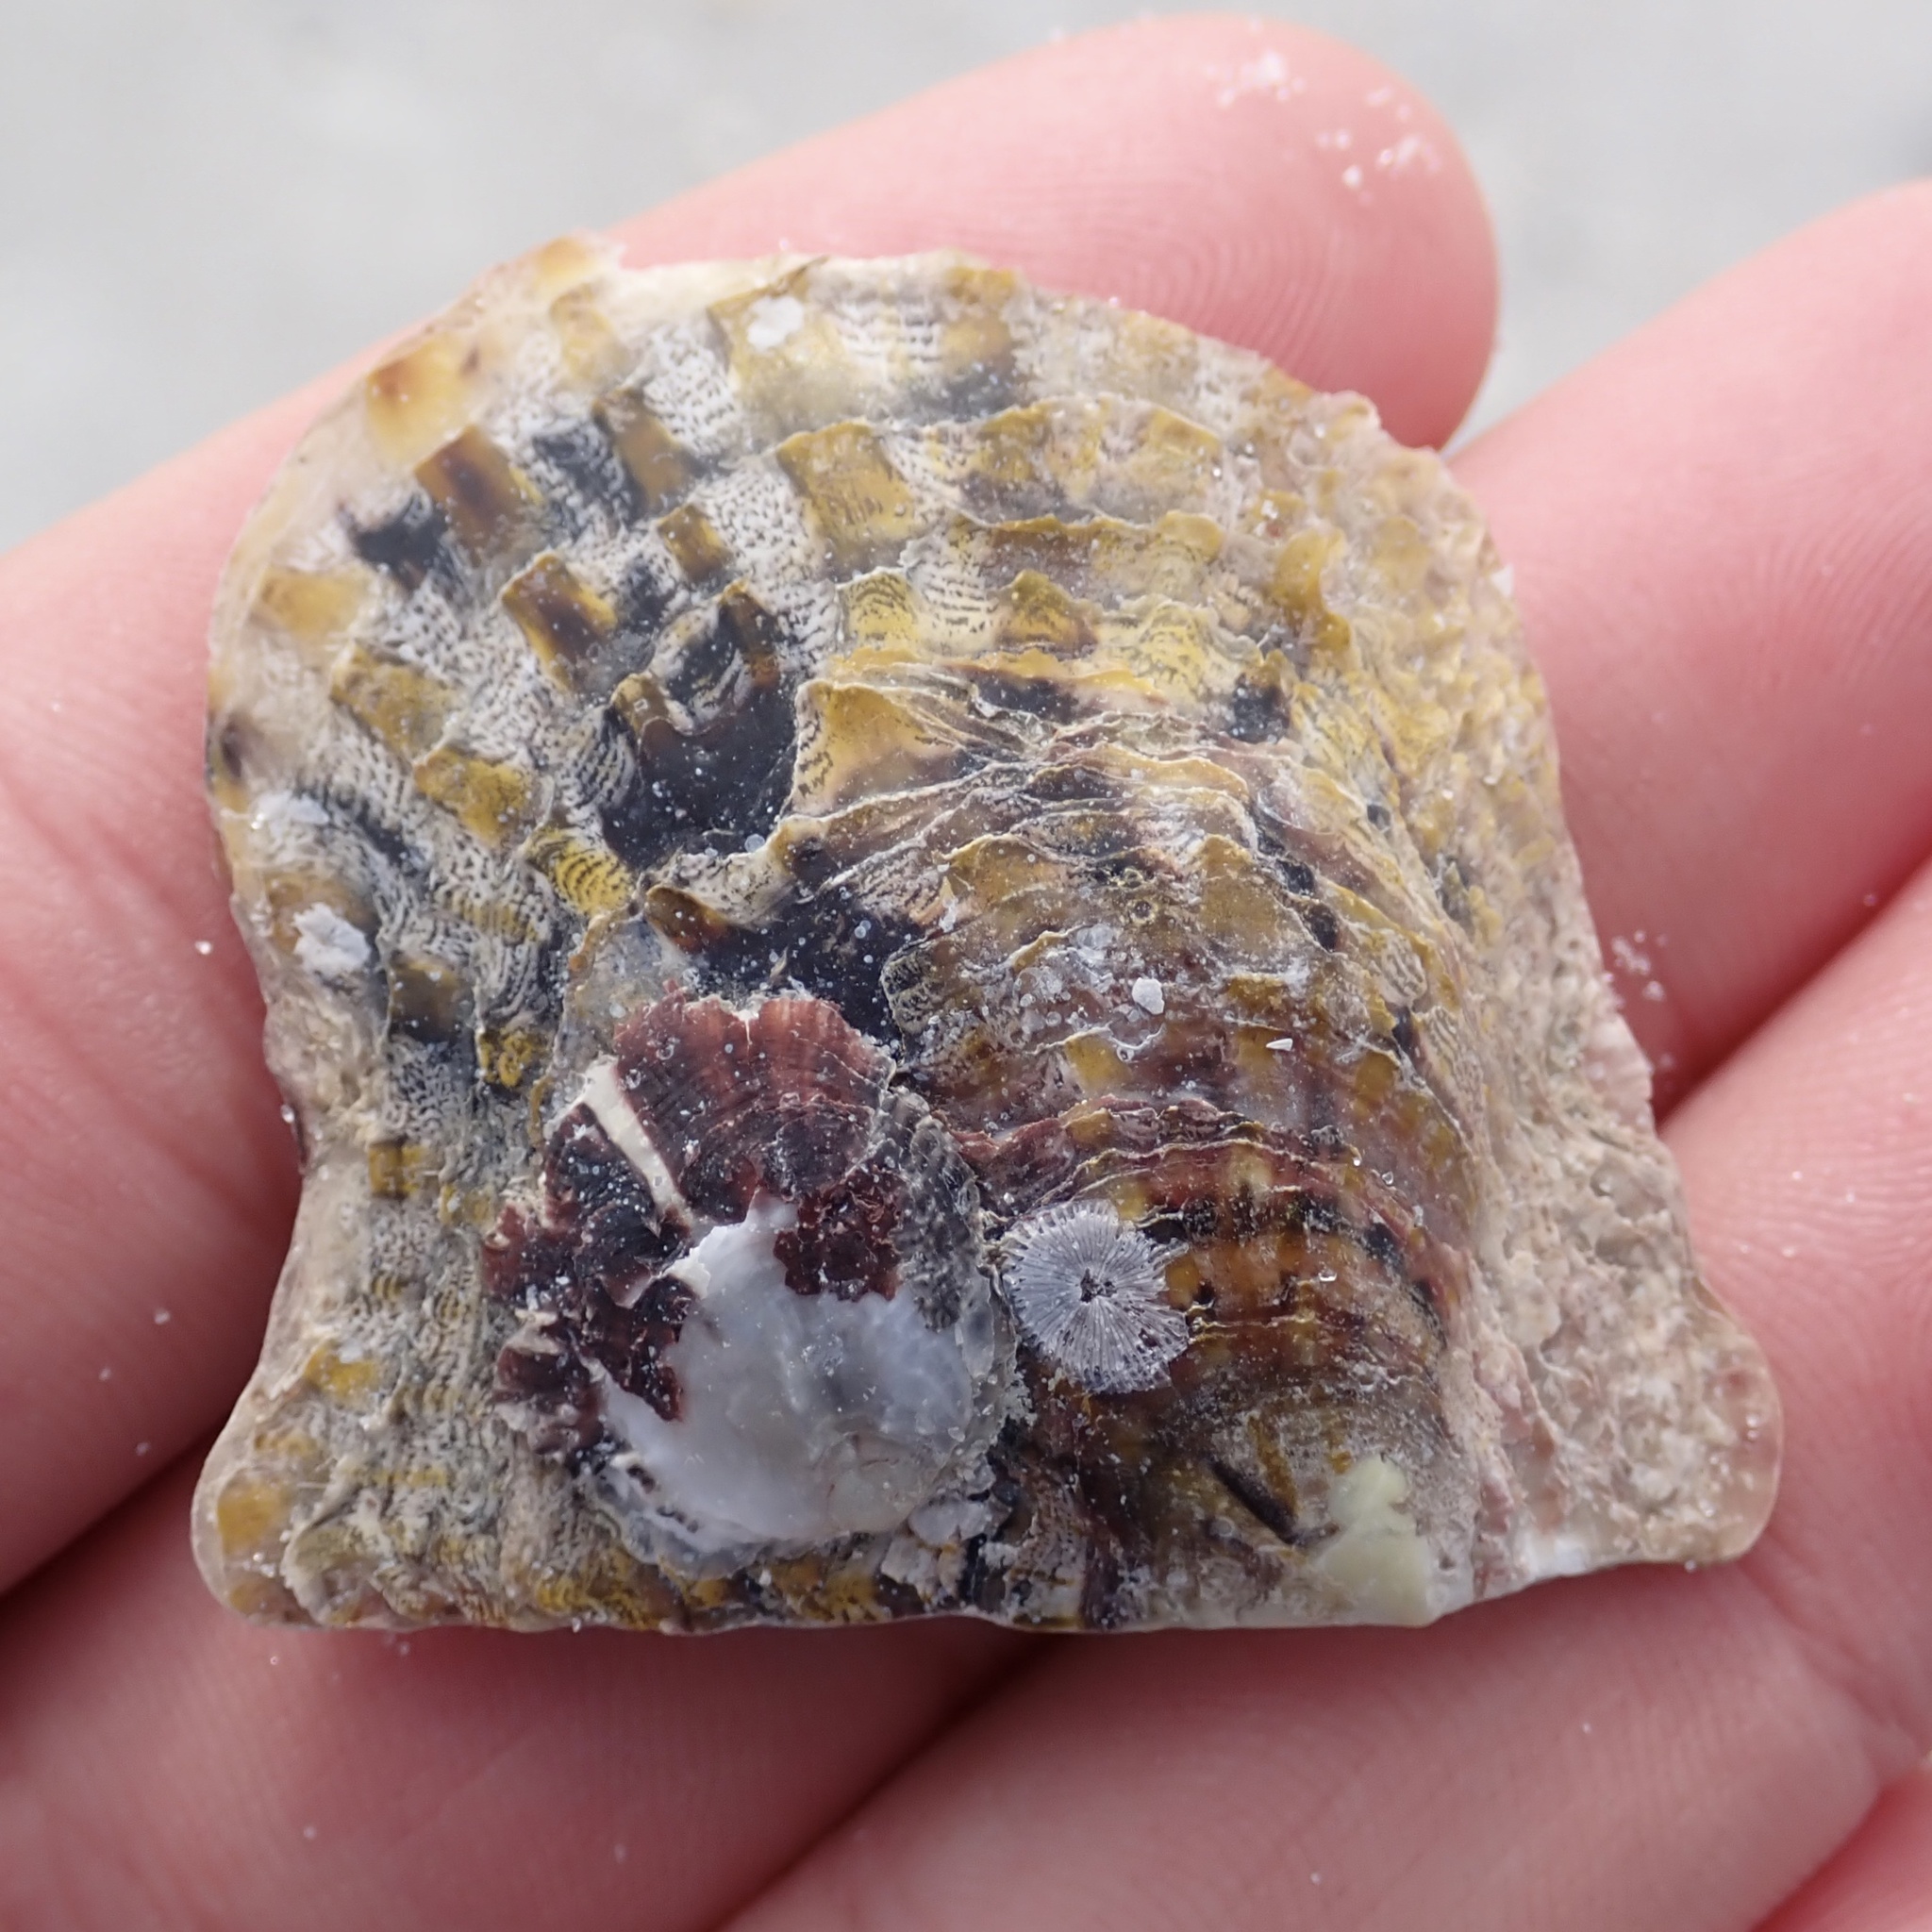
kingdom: Animalia
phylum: Mollusca
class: Bivalvia
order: Ostreida
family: Margaritidae
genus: Pinctada
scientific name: Pinctada imbricata
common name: Atlantic pearl-oyster
